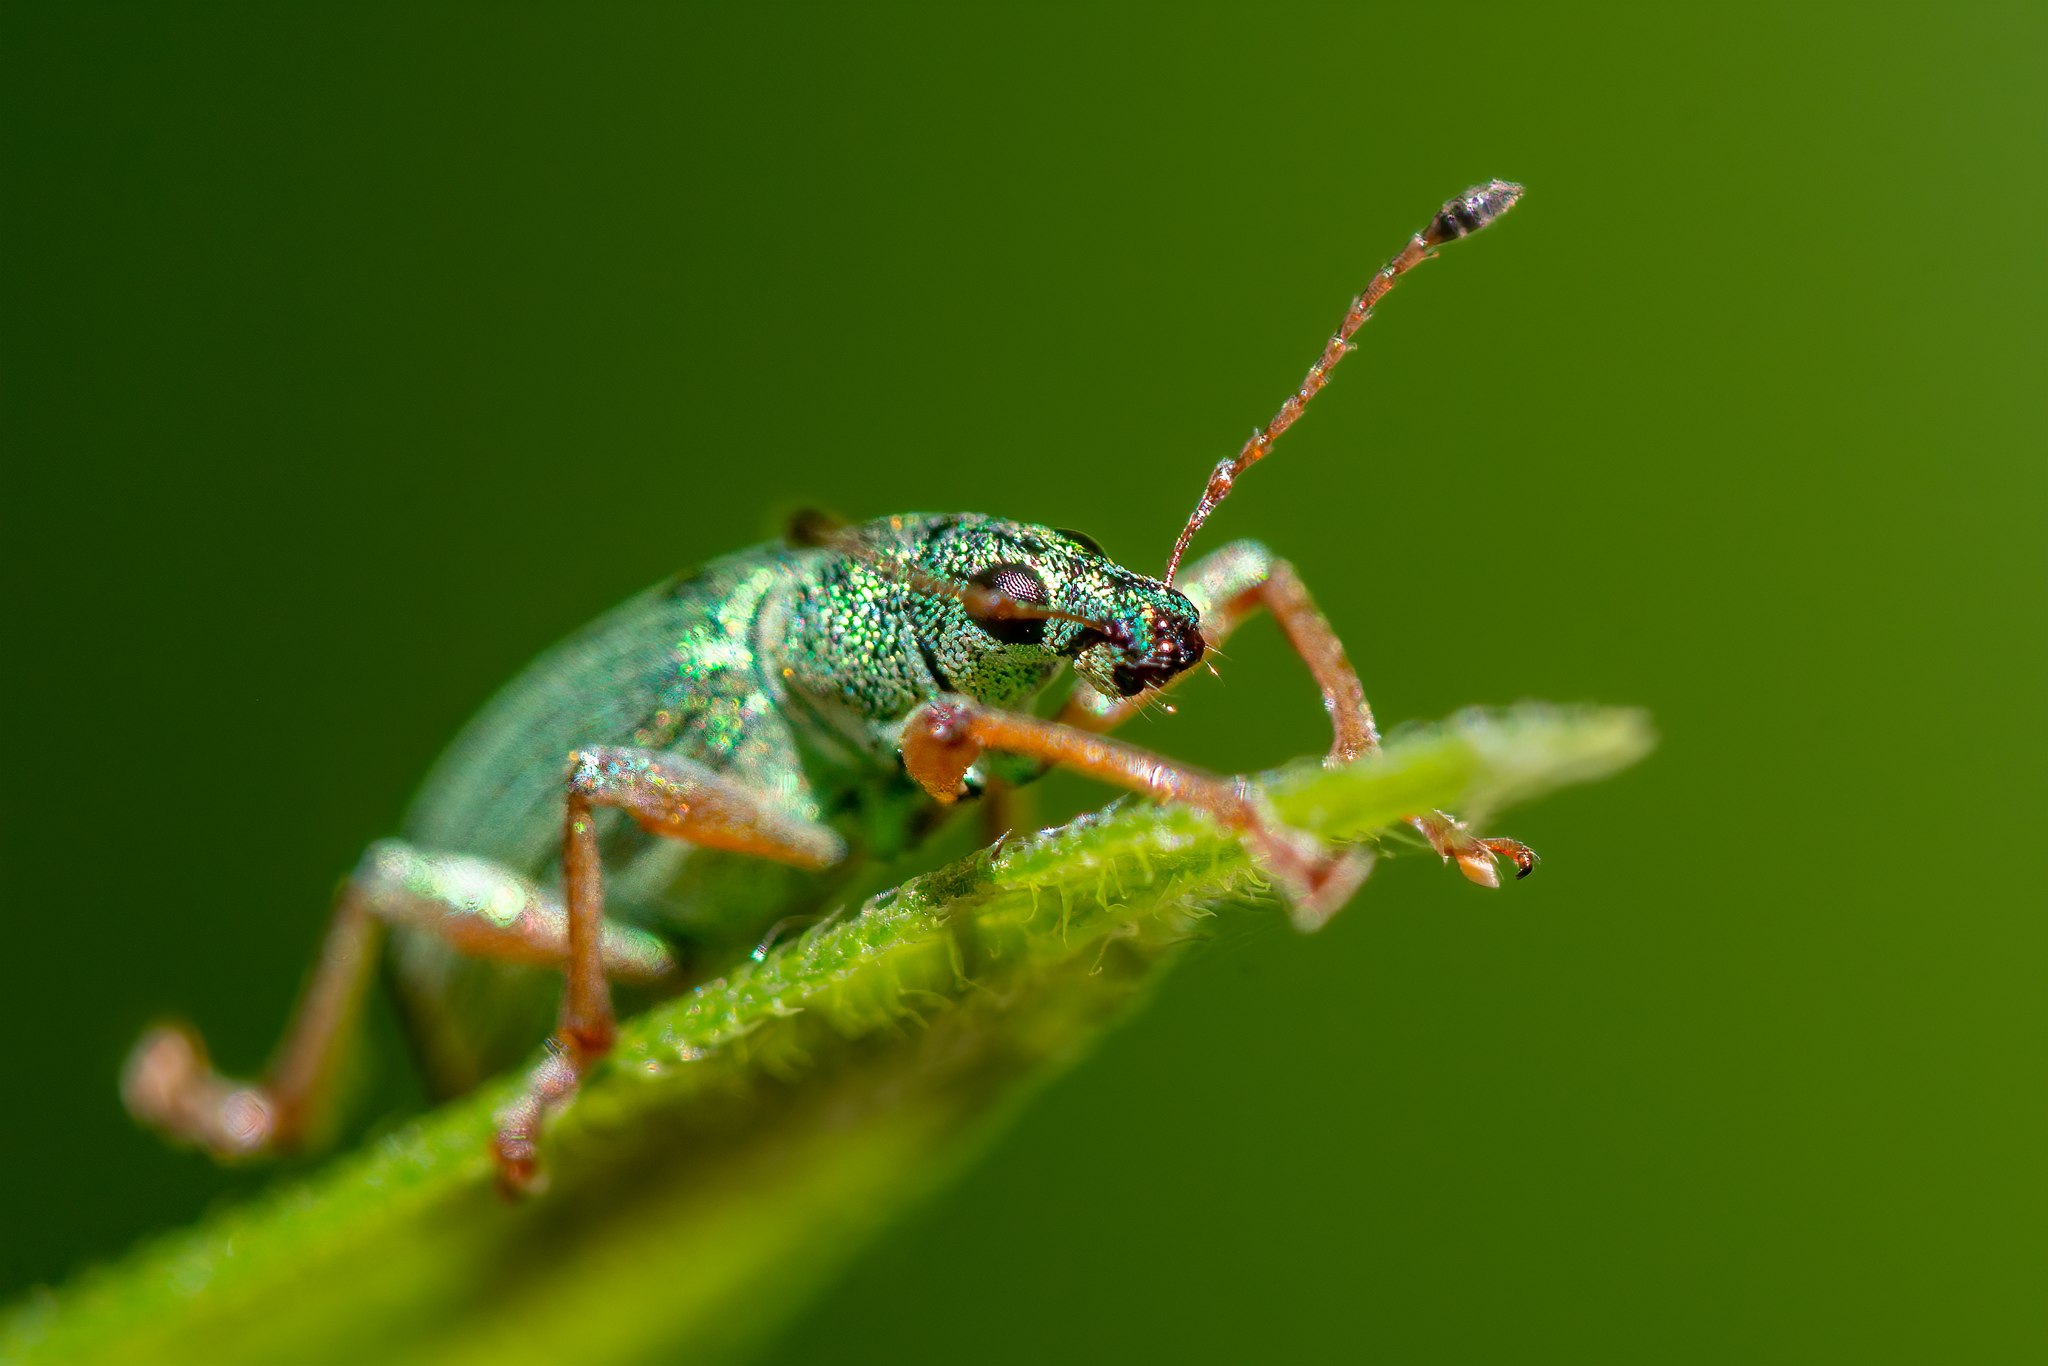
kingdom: Animalia
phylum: Arthropoda
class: Insecta
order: Coleoptera
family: Curculionidae
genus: Polydrusus
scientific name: Polydrusus formosus
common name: Weevil
